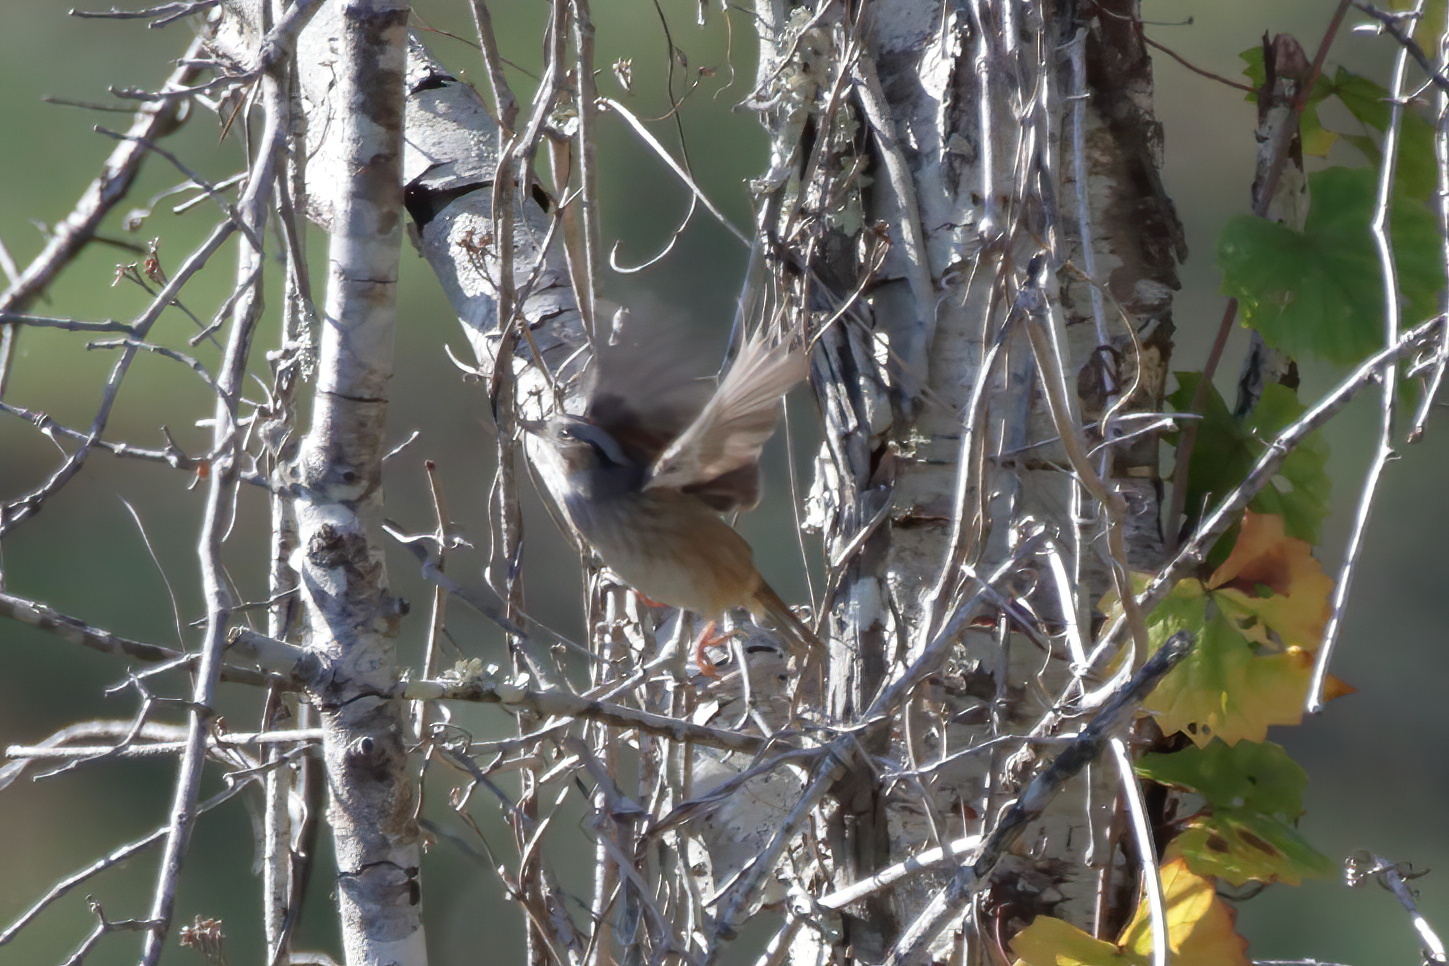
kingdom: Animalia
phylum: Chordata
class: Aves
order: Passeriformes
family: Passerellidae
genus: Melospiza
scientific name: Melospiza georgiana
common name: Swamp sparrow
